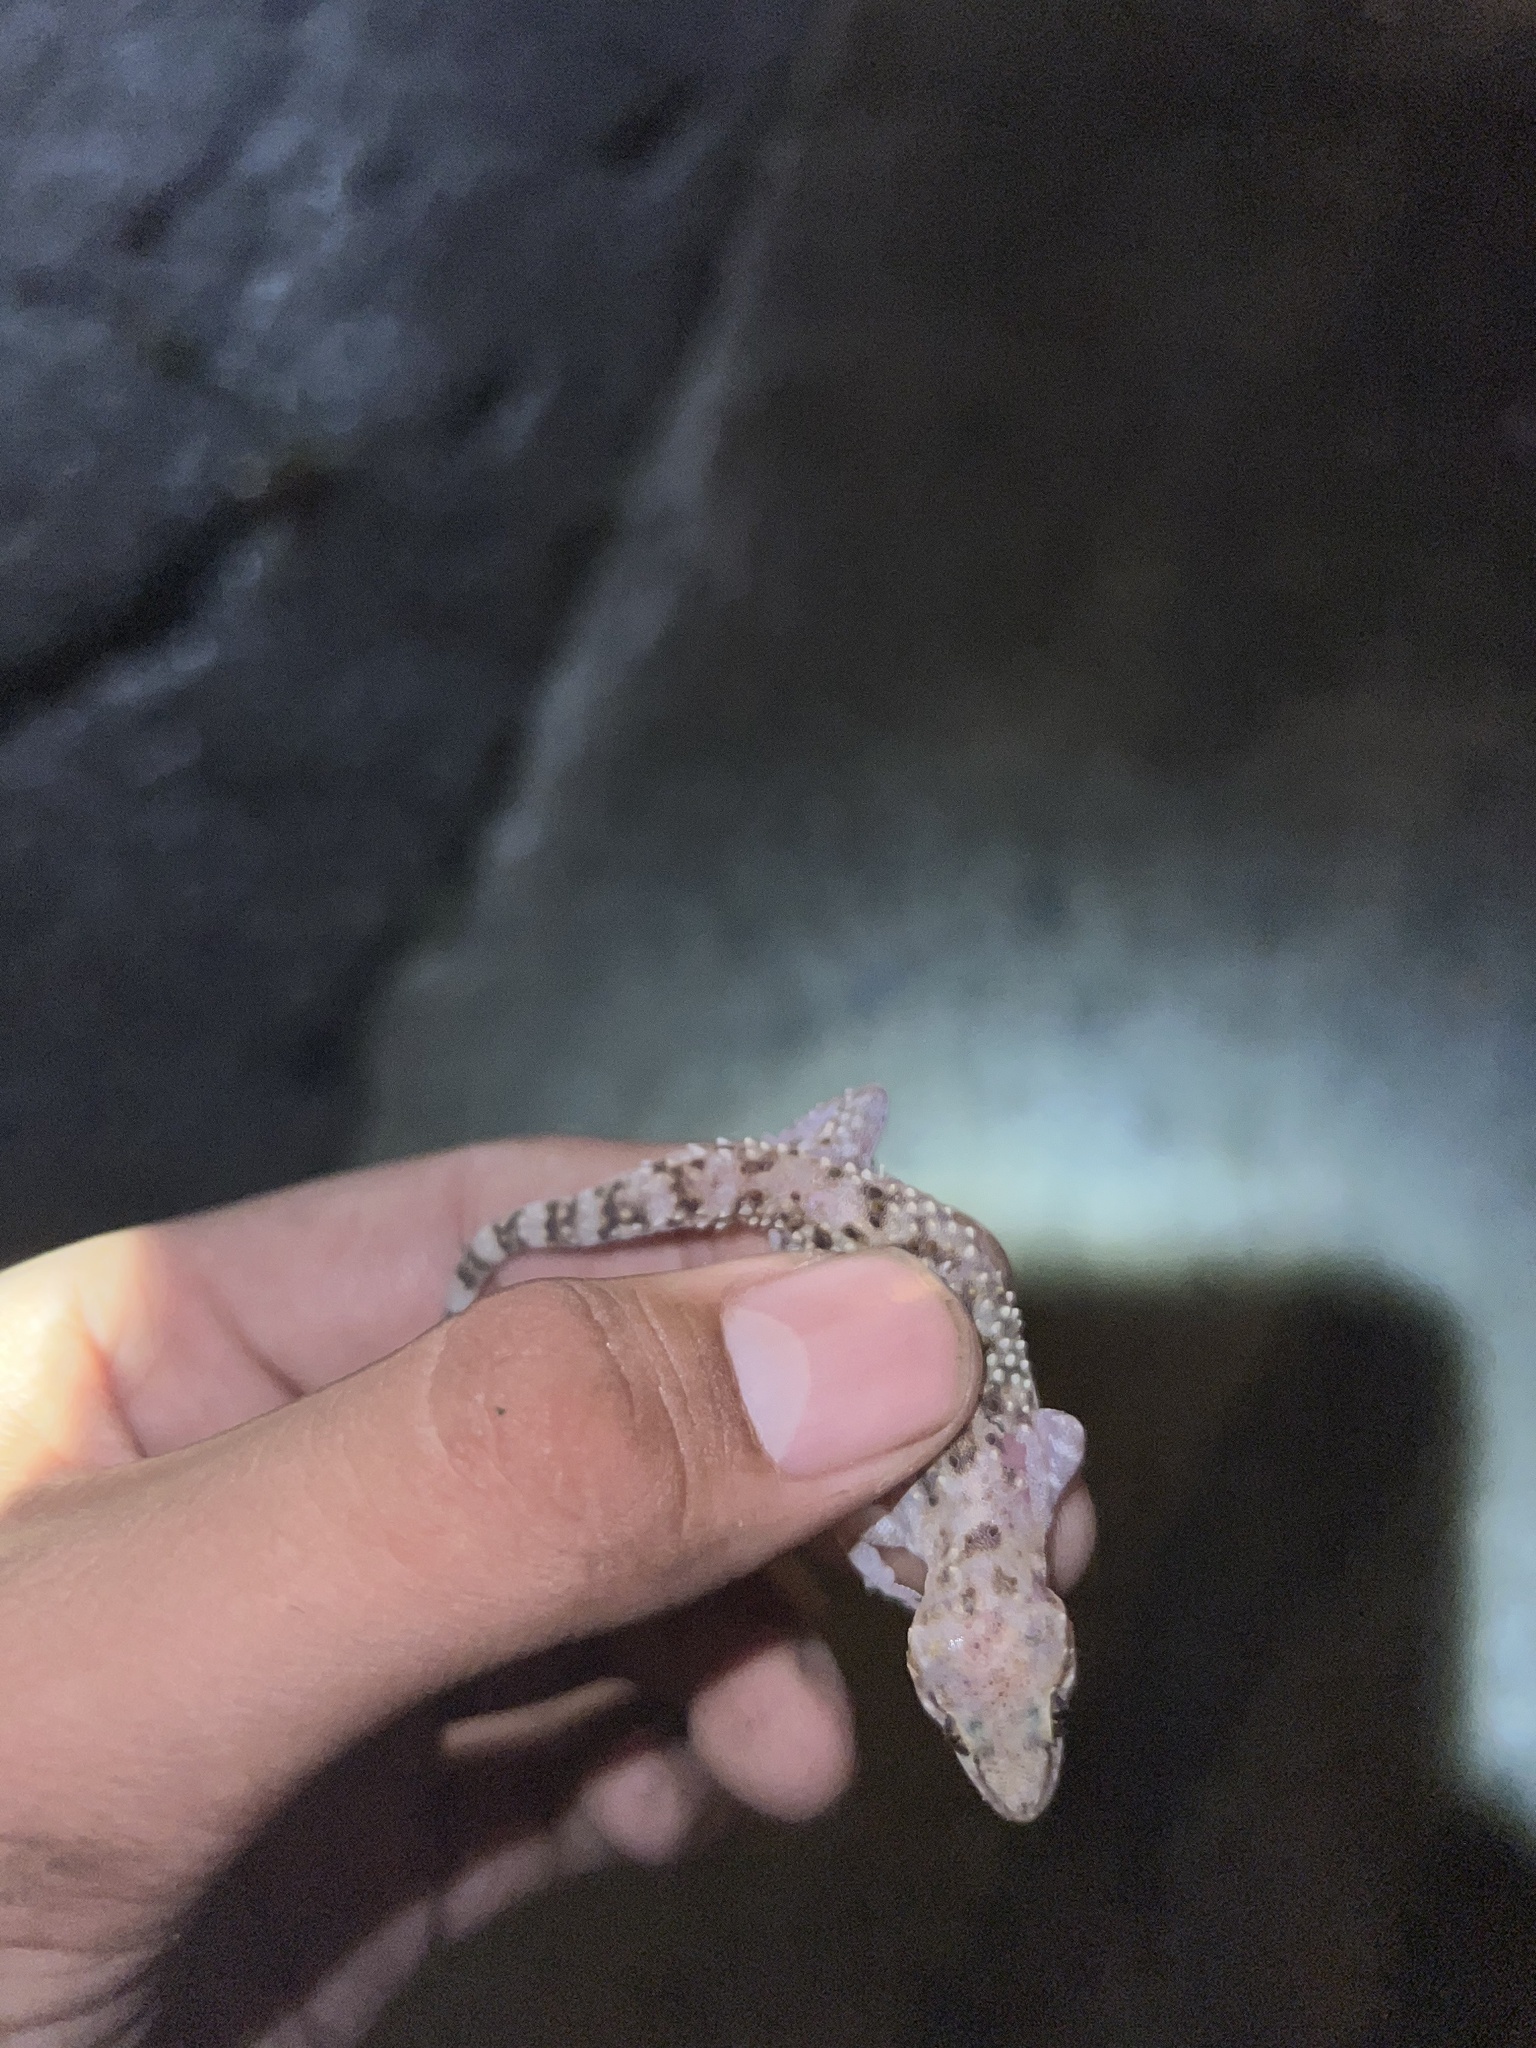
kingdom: Animalia
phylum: Chordata
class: Squamata
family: Gekkonidae
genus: Hemidactylus
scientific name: Hemidactylus turcicus
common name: Turkish gecko
